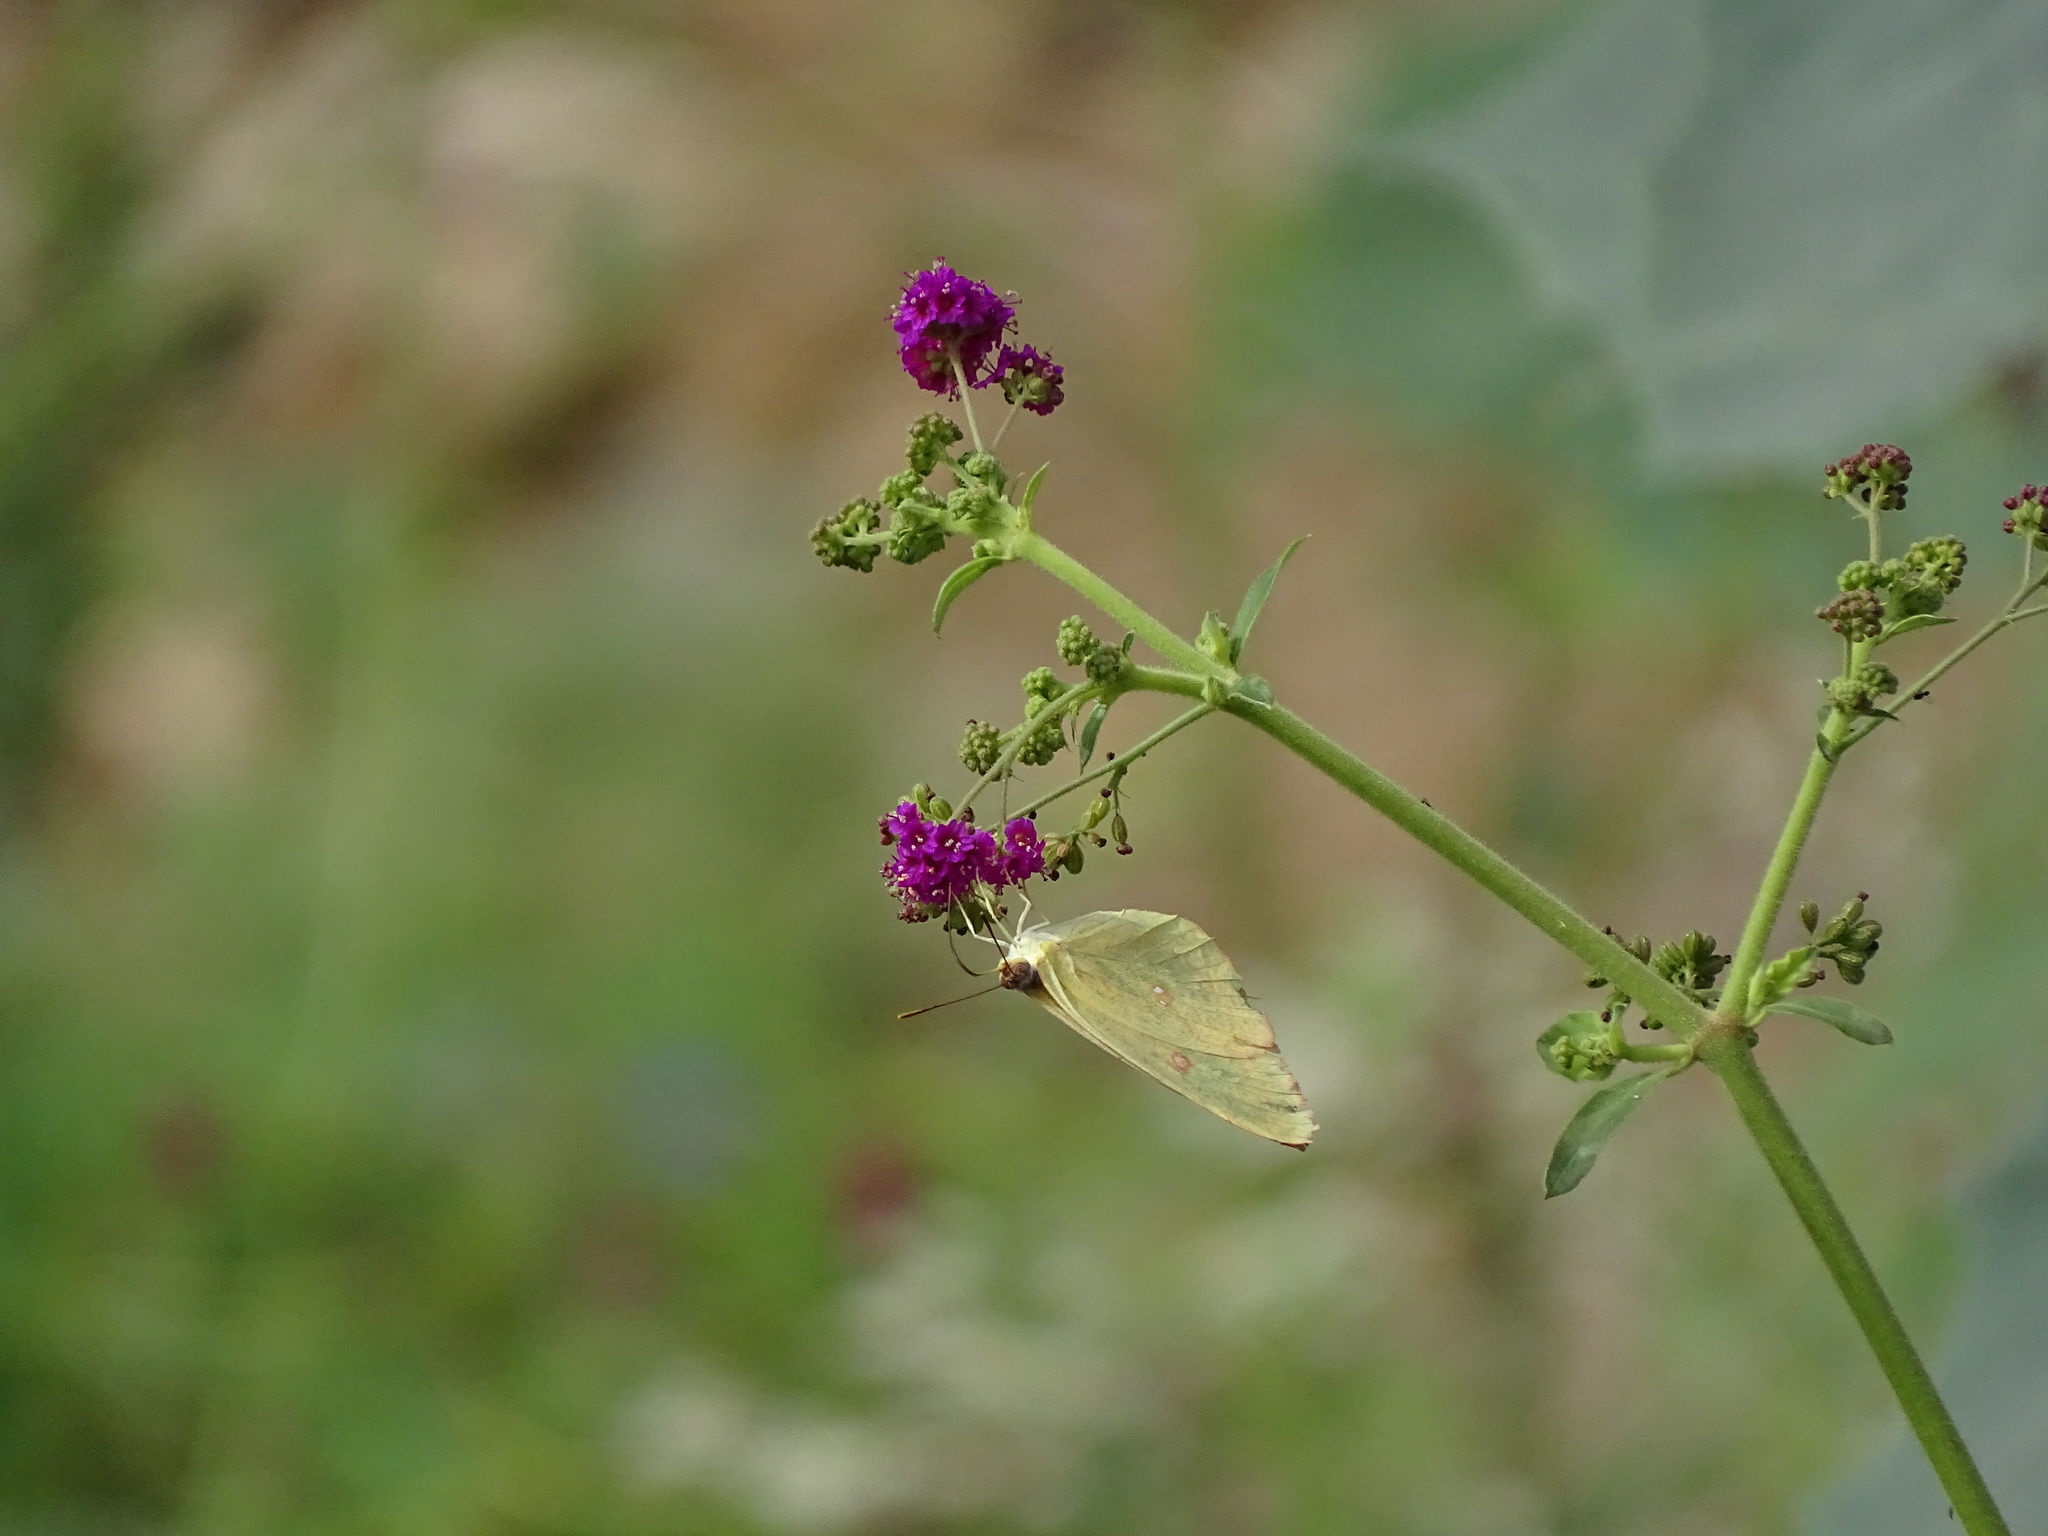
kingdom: Animalia
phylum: Arthropoda
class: Insecta
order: Lepidoptera
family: Pieridae
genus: Phoebis
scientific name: Phoebis sennae
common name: Cloudless sulphur
